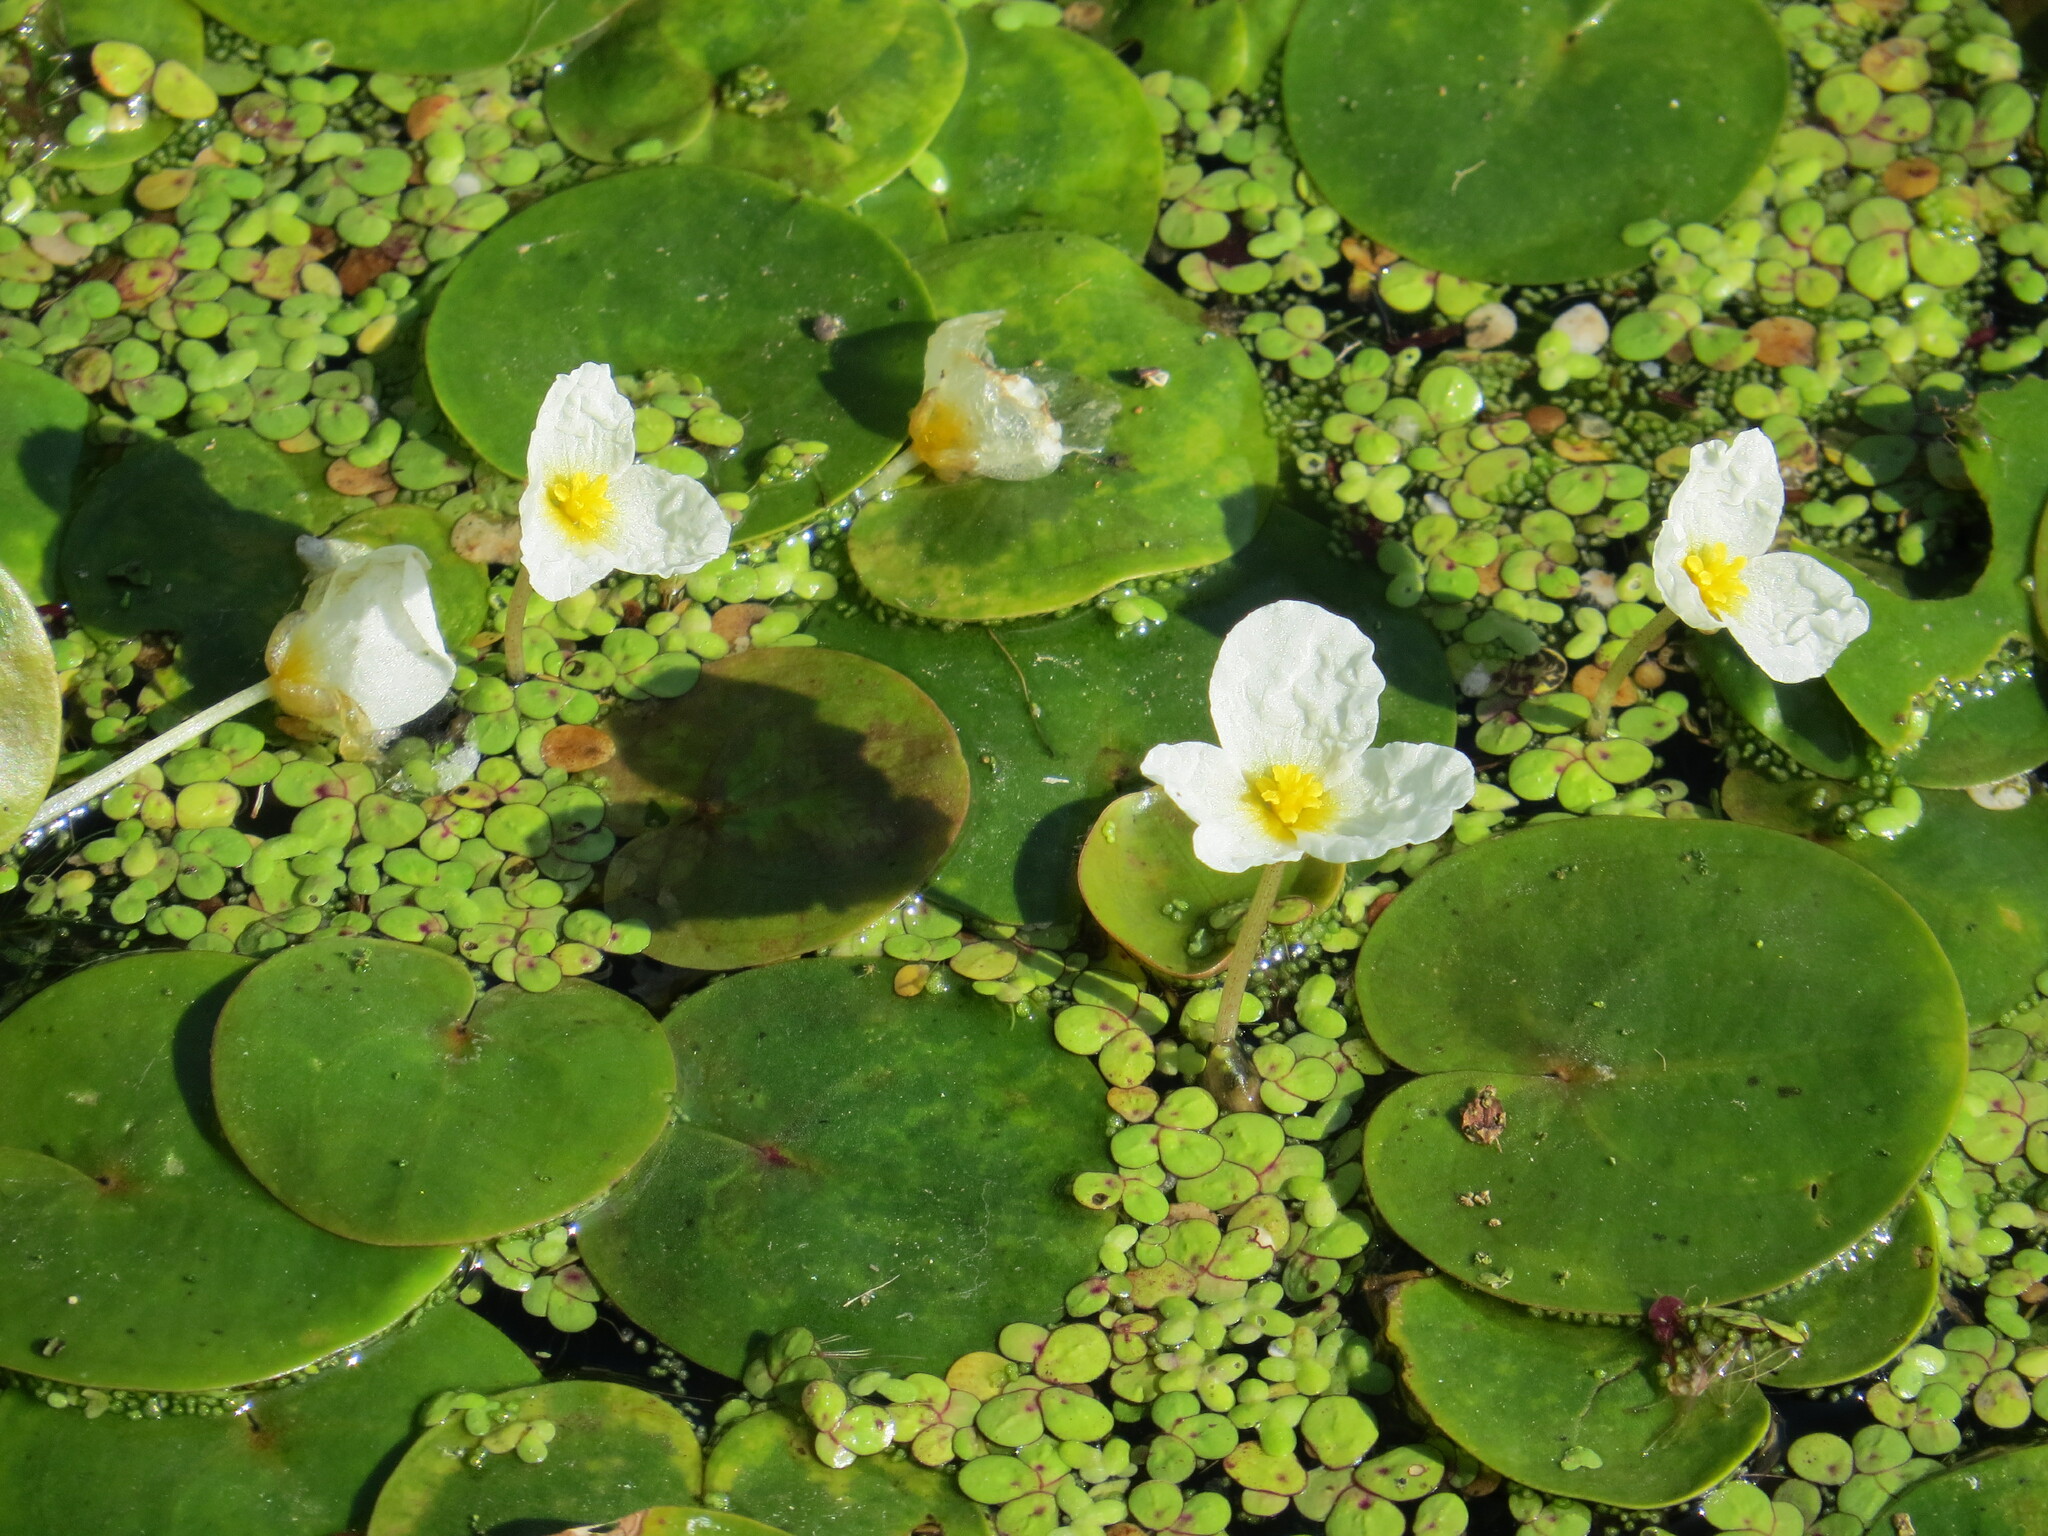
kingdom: Plantae
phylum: Tracheophyta
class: Liliopsida
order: Alismatales
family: Hydrocharitaceae
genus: Hydrocharis
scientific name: Hydrocharis morsus-ranae
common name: Frogbit
